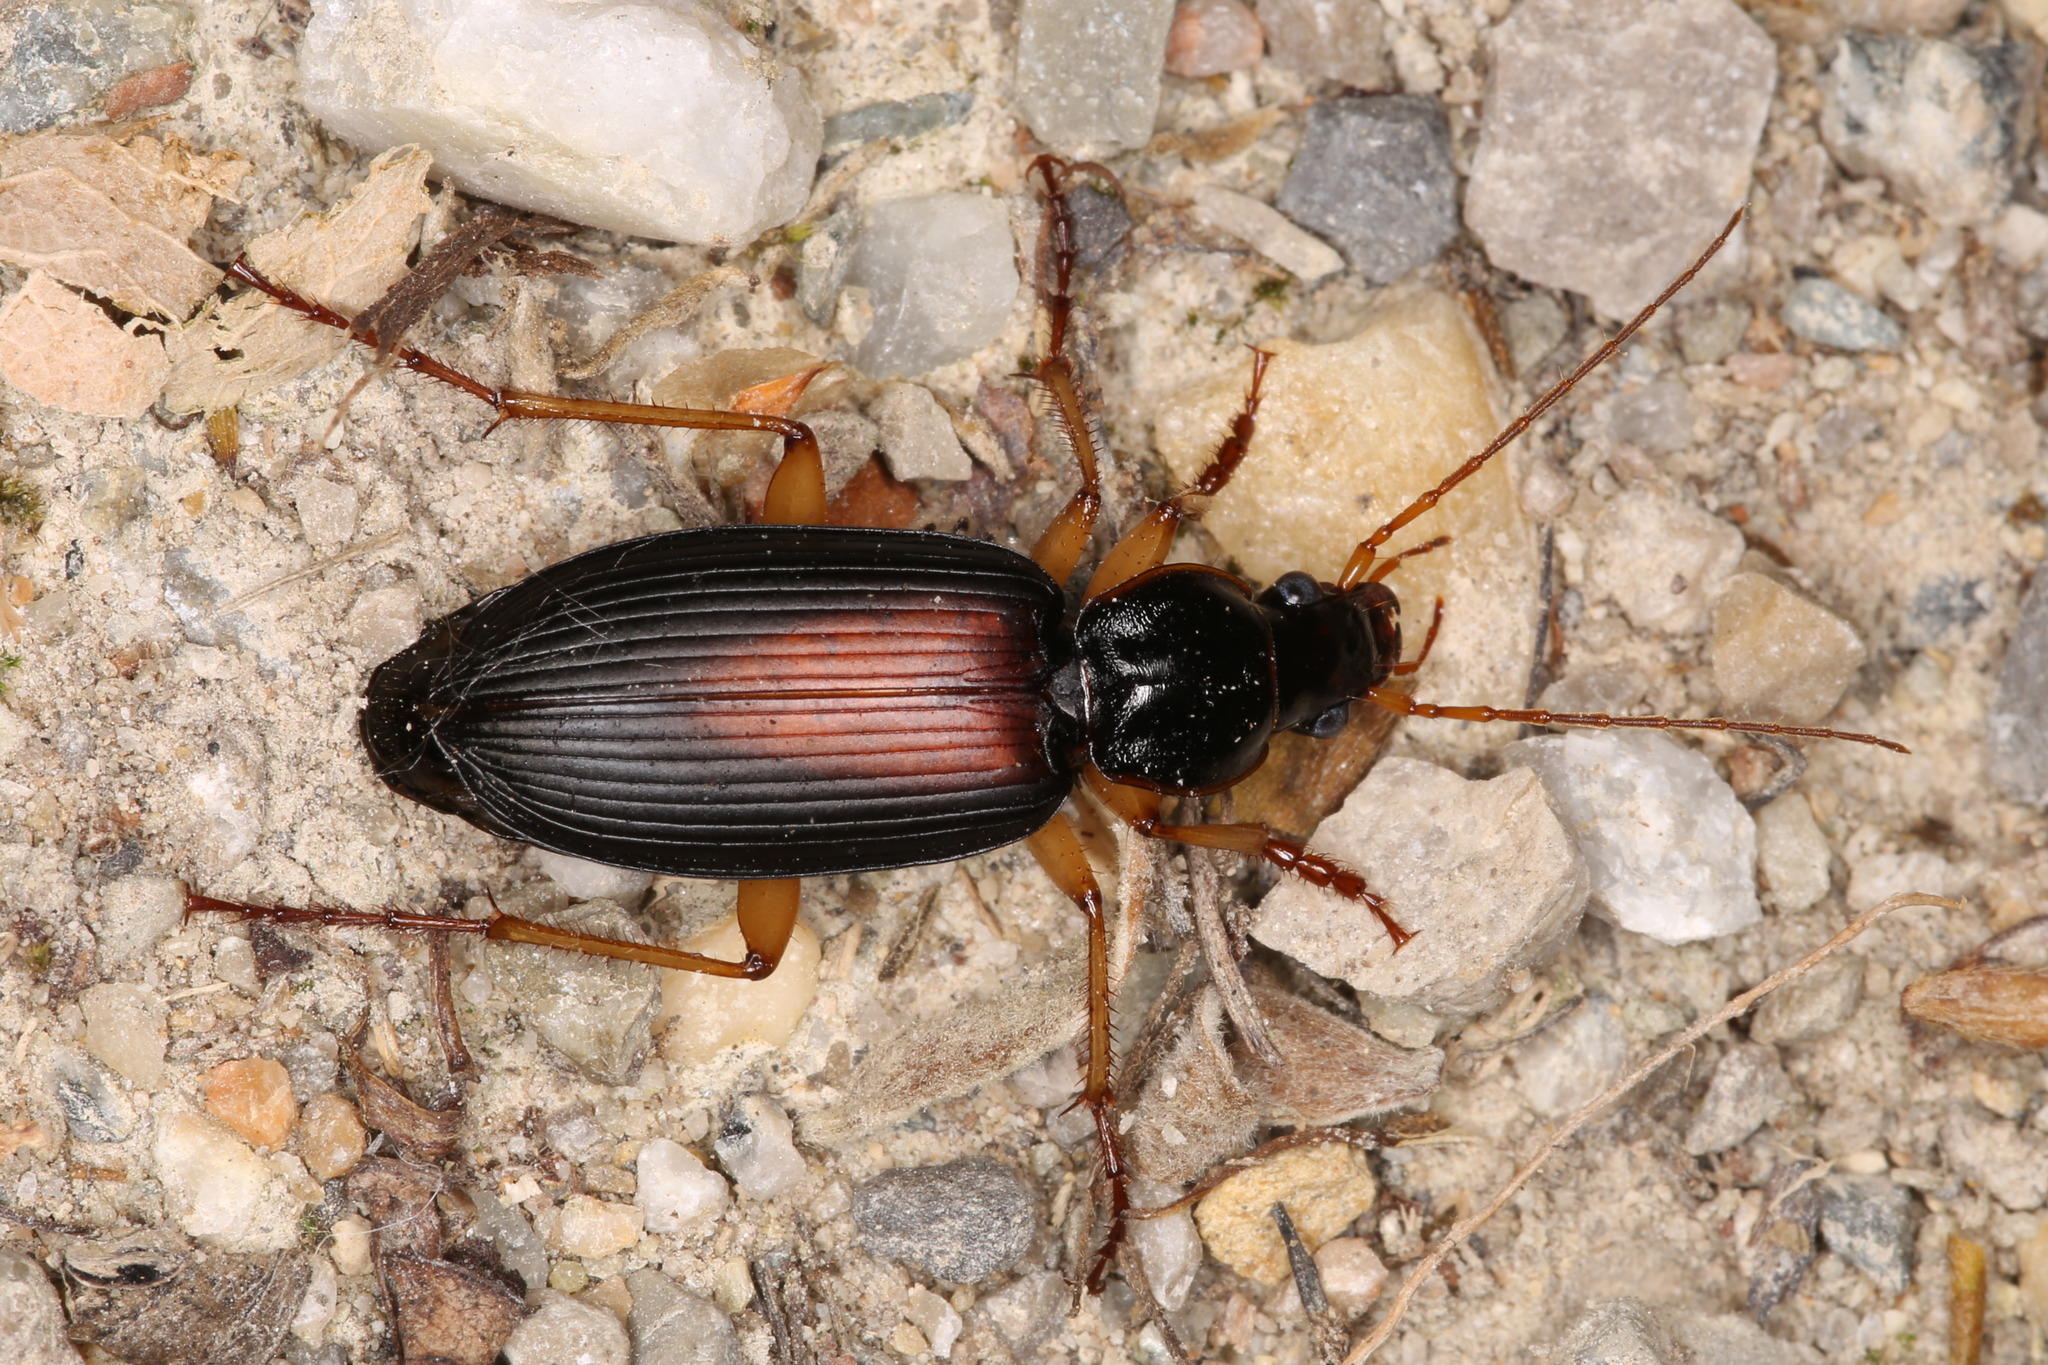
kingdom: Animalia
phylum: Arthropoda
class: Insecta
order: Coleoptera
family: Carabidae
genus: Dolichus
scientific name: Dolichus halensis
